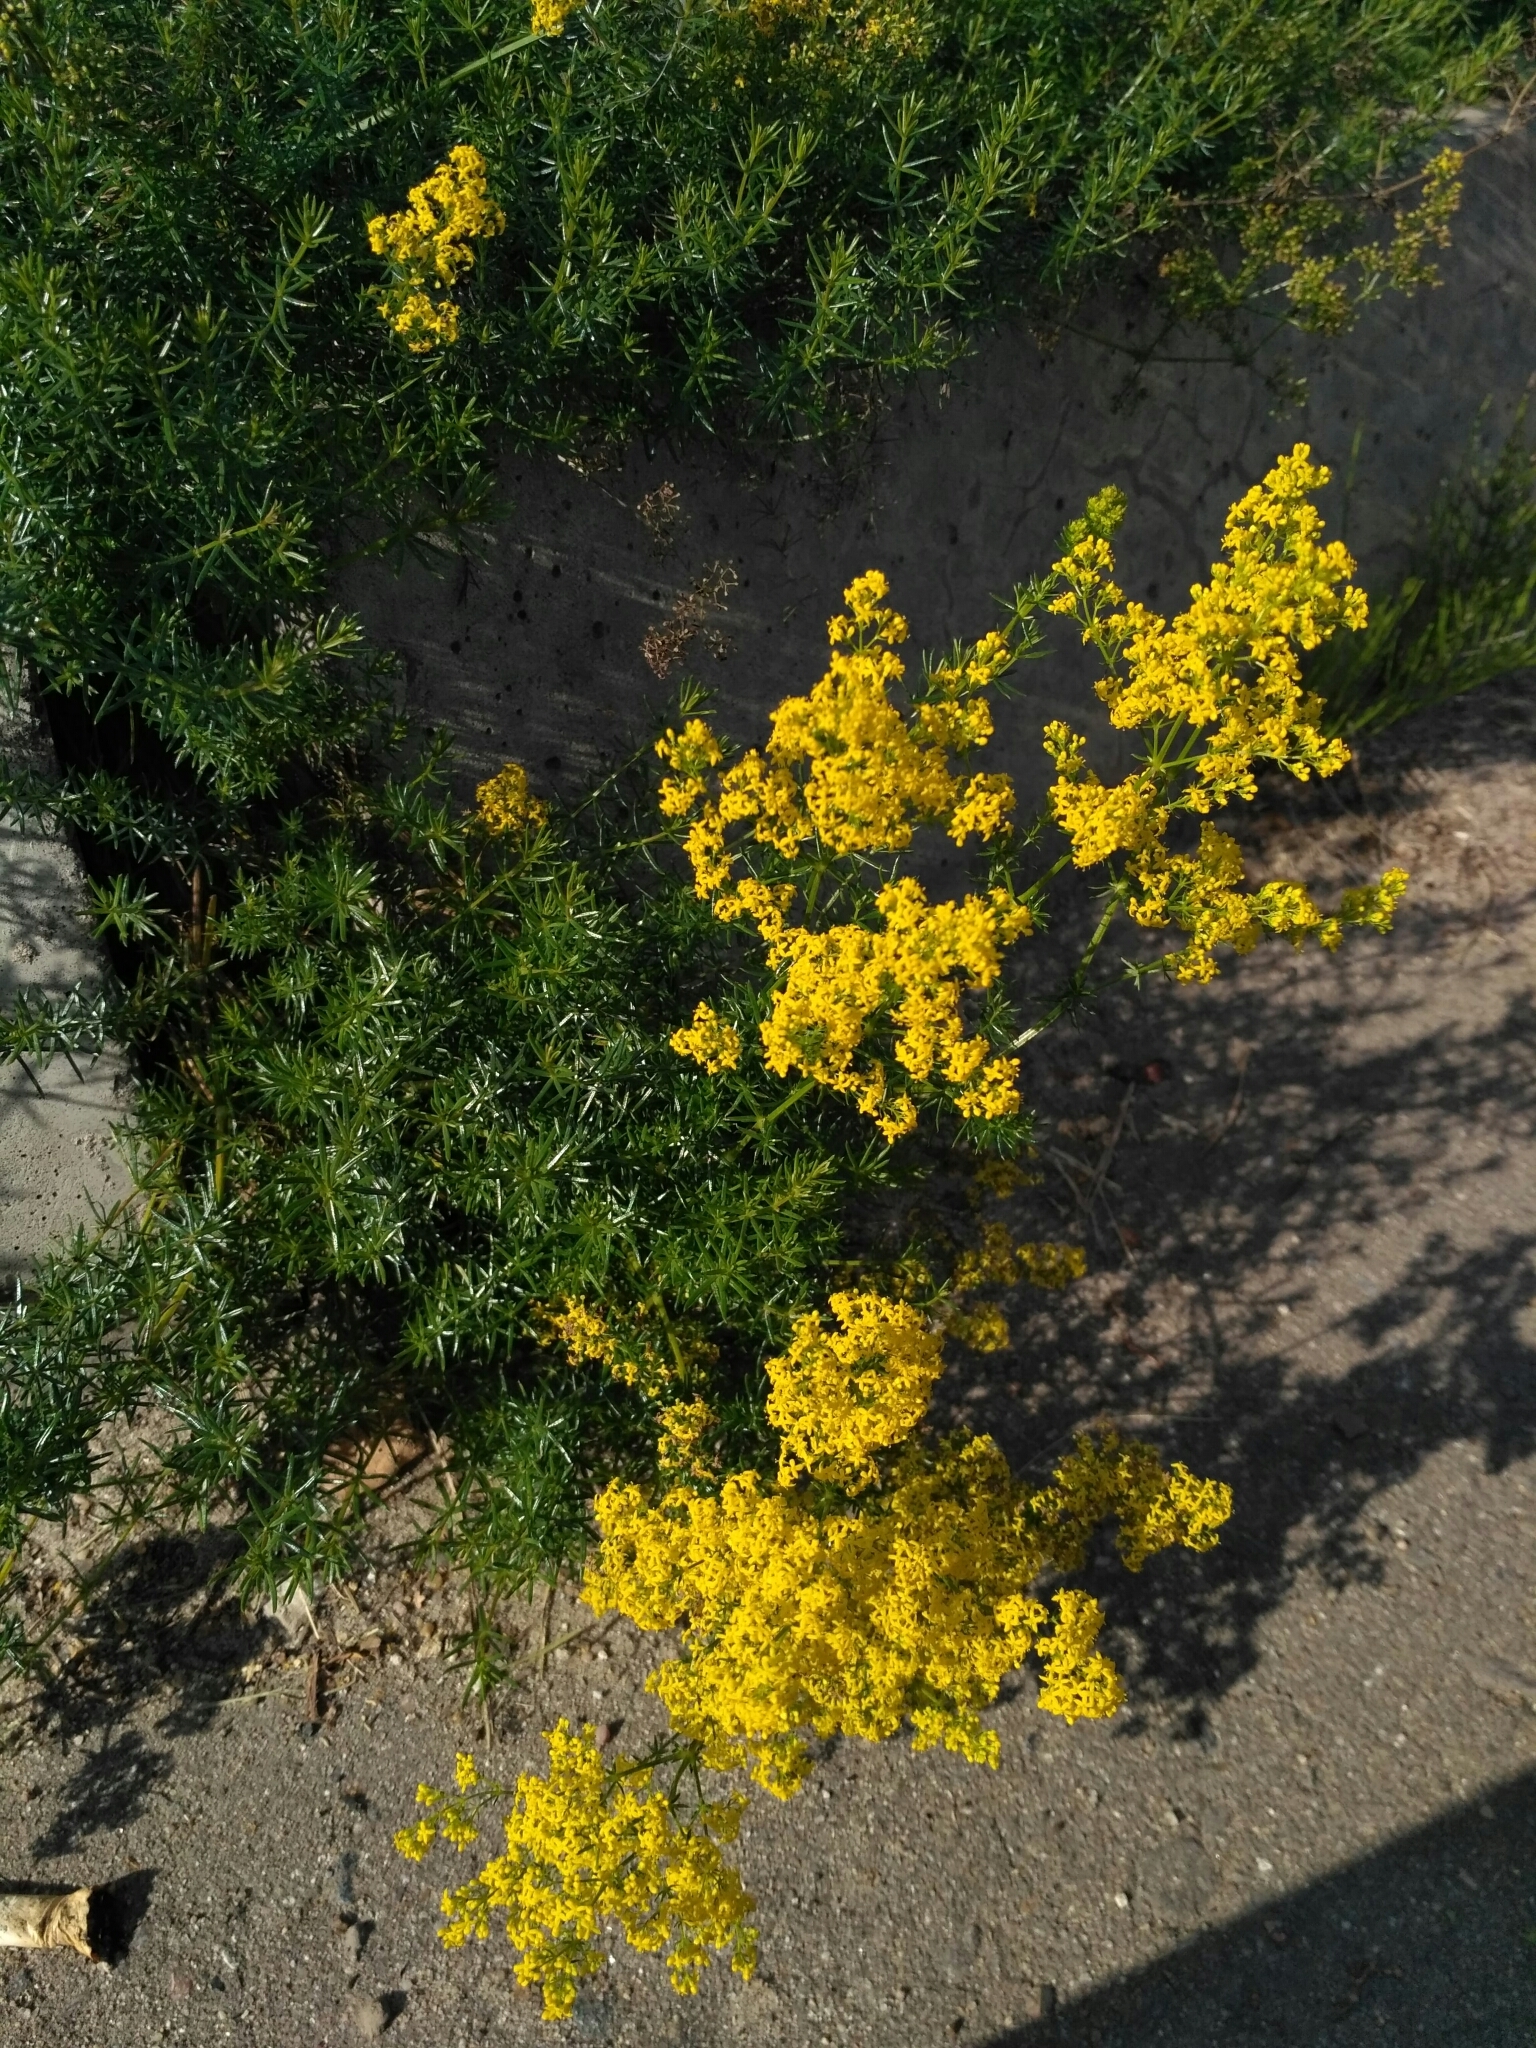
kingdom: Plantae
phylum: Tracheophyta
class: Magnoliopsida
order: Gentianales
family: Rubiaceae
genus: Galium
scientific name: Galium verum
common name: Lady's bedstraw
